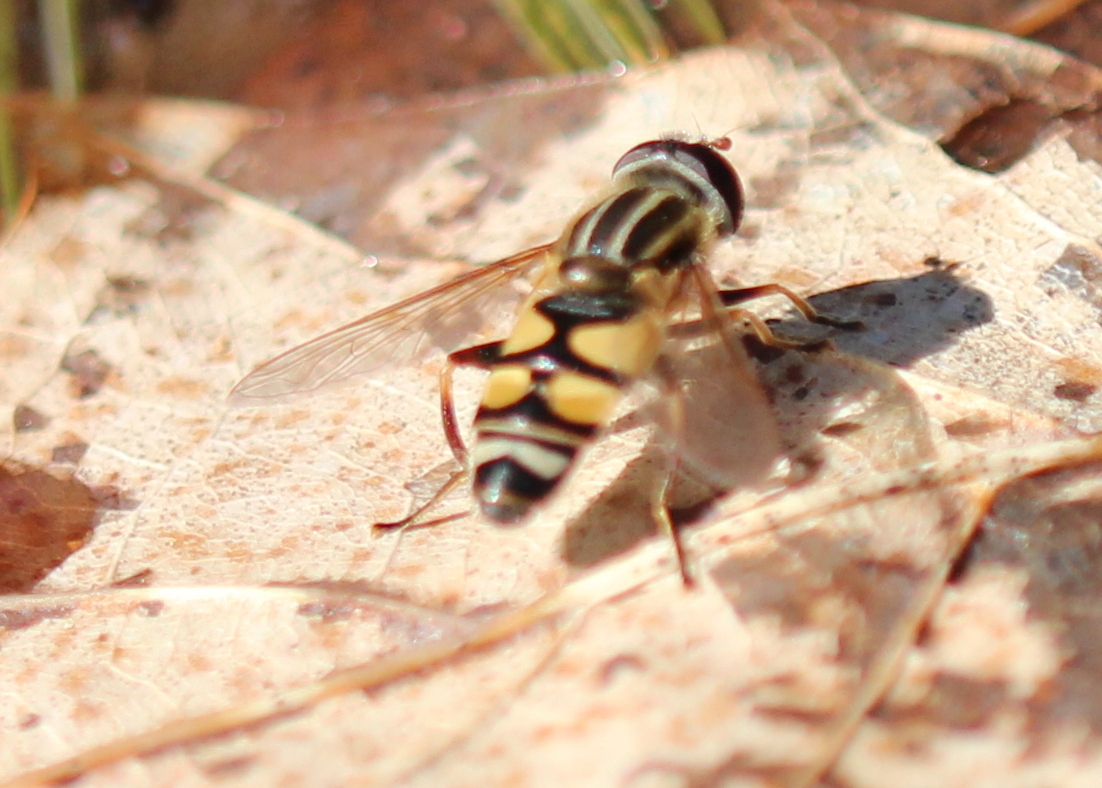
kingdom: Animalia
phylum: Arthropoda
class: Insecta
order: Diptera
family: Syrphidae
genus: Helophilus
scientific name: Helophilus fasciatus
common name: Narrow-headed marsh fly
